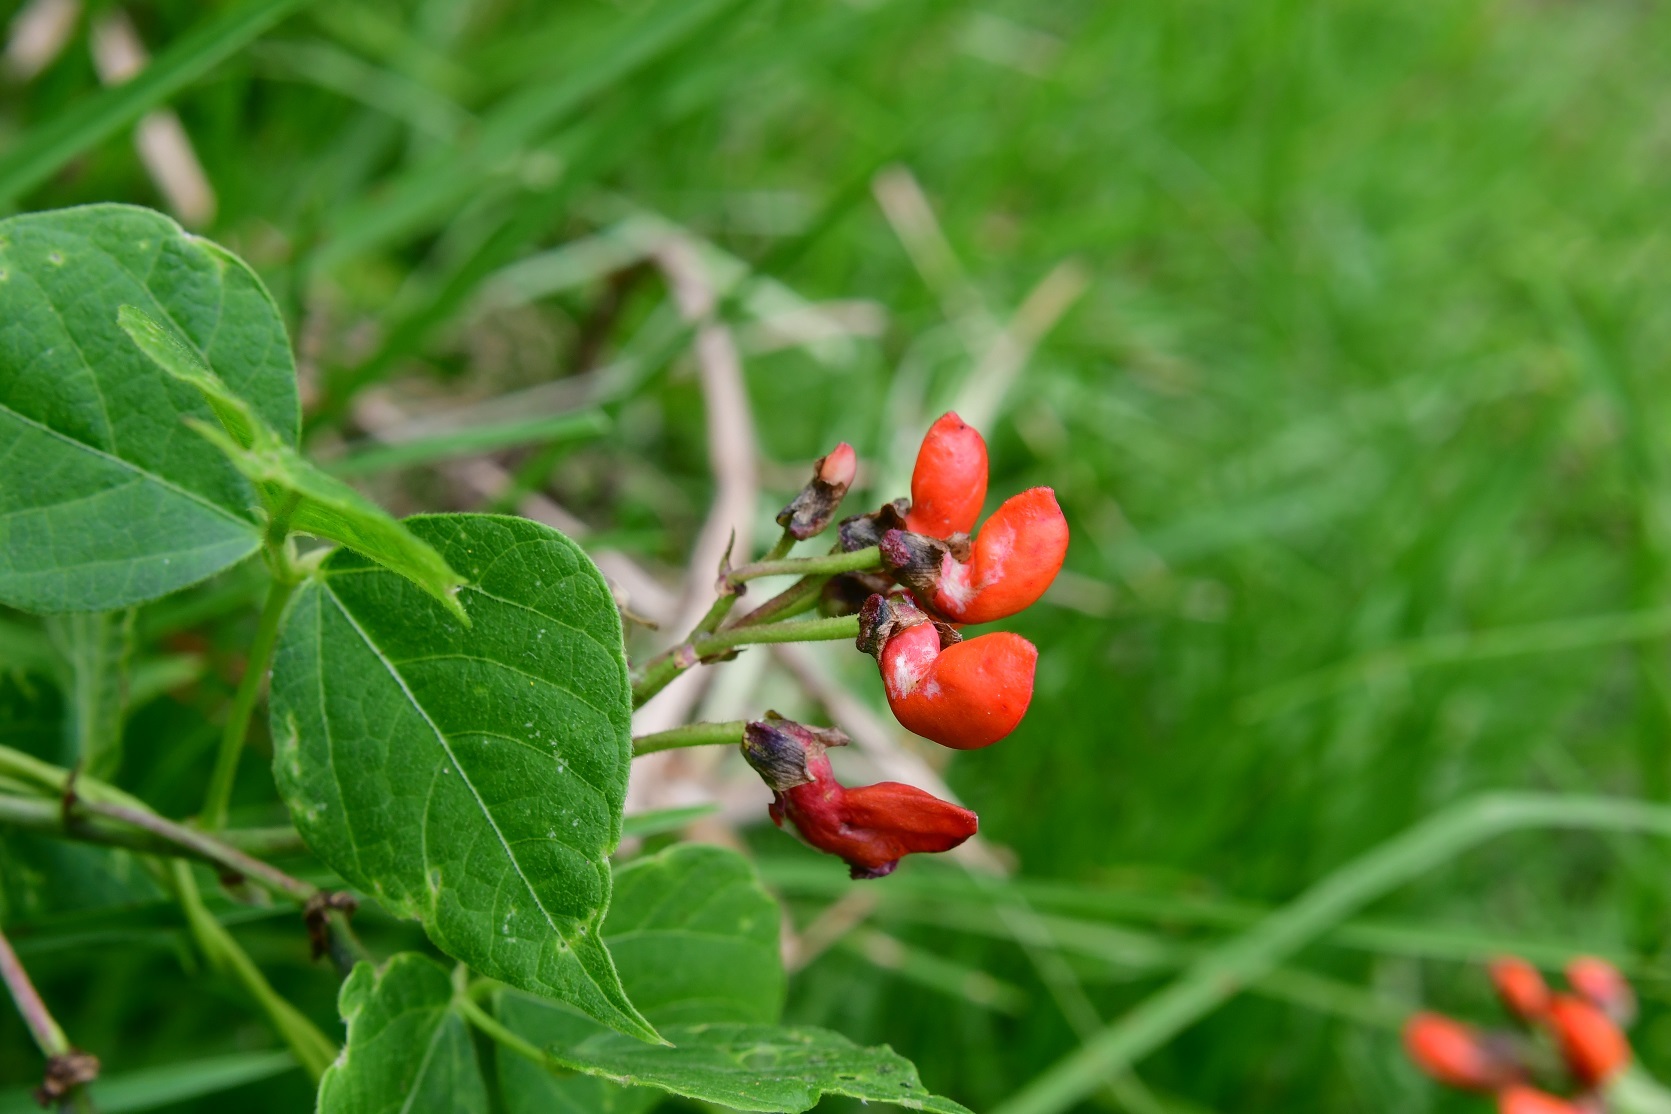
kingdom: Plantae
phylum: Tracheophyta
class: Magnoliopsida
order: Fabales
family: Fabaceae
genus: Phaseolus
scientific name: Phaseolus coccineus
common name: Runner bean
